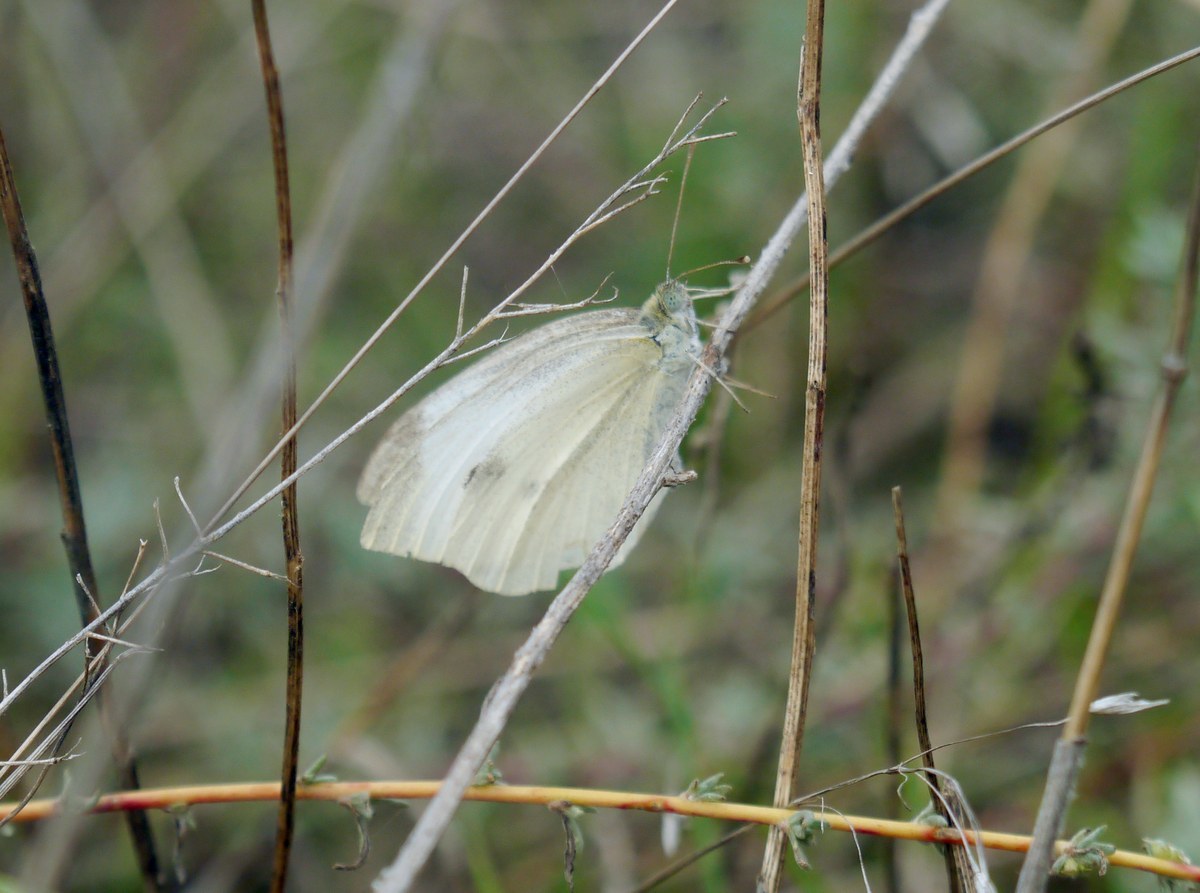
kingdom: Animalia
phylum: Arthropoda
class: Insecta
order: Lepidoptera
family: Pieridae
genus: Pieris
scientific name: Pieris rapae
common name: Small white
